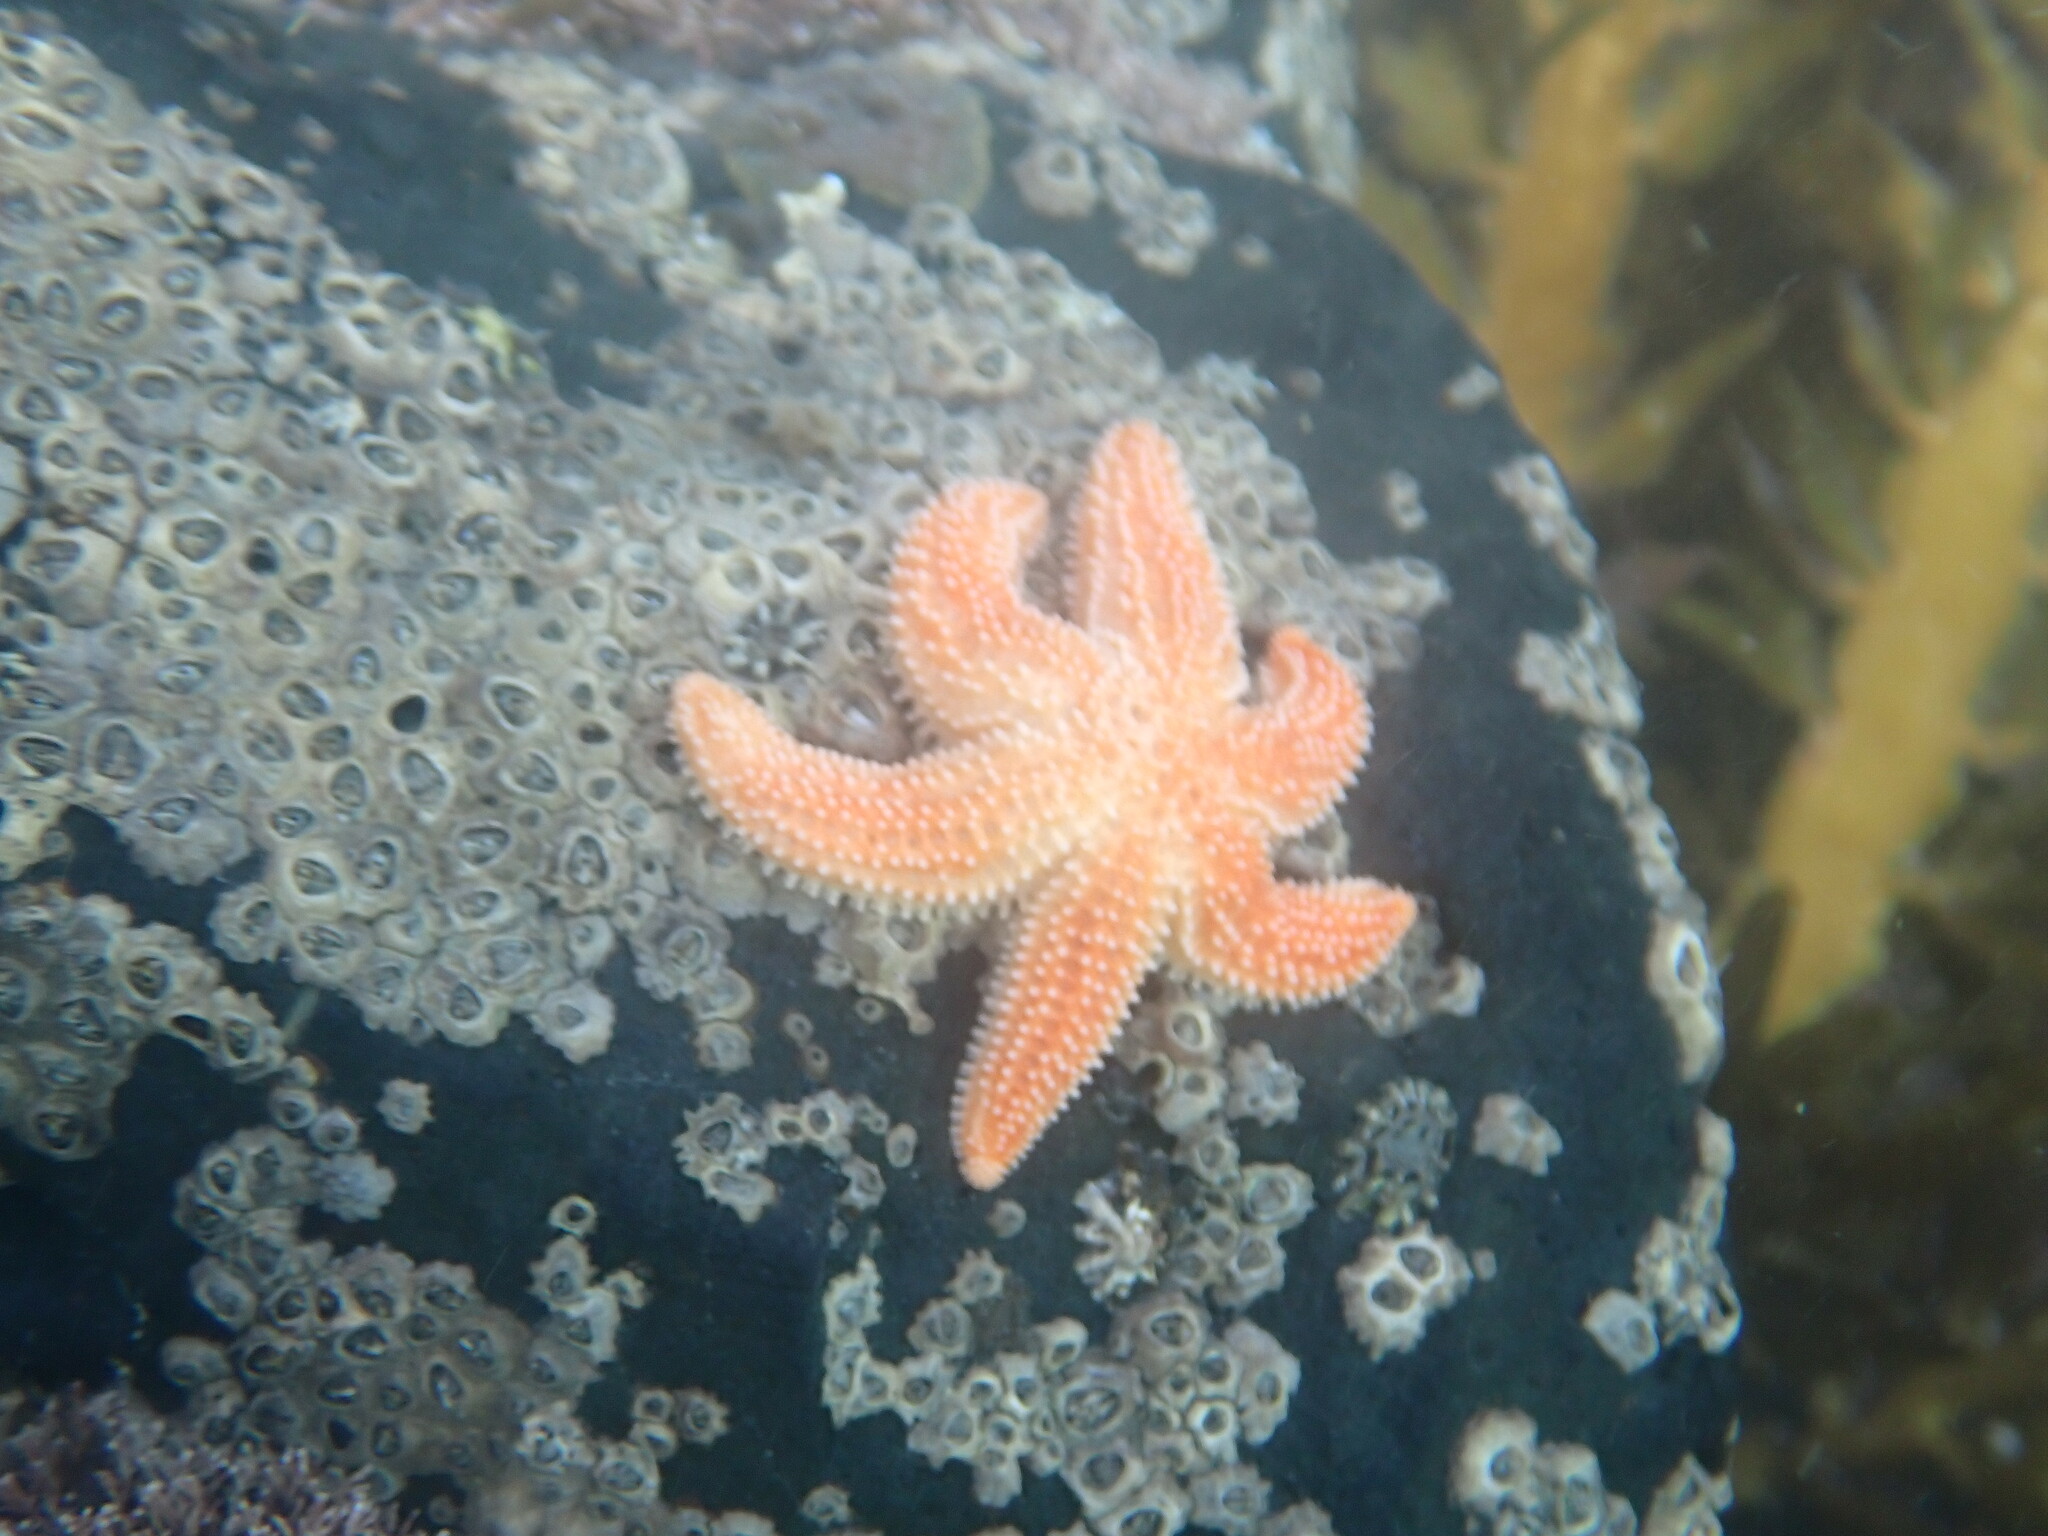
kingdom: Animalia
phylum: Echinodermata
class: Asteroidea
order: Forcipulatida
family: Stichasteridae
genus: Allostichaster
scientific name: Allostichaster insignis
